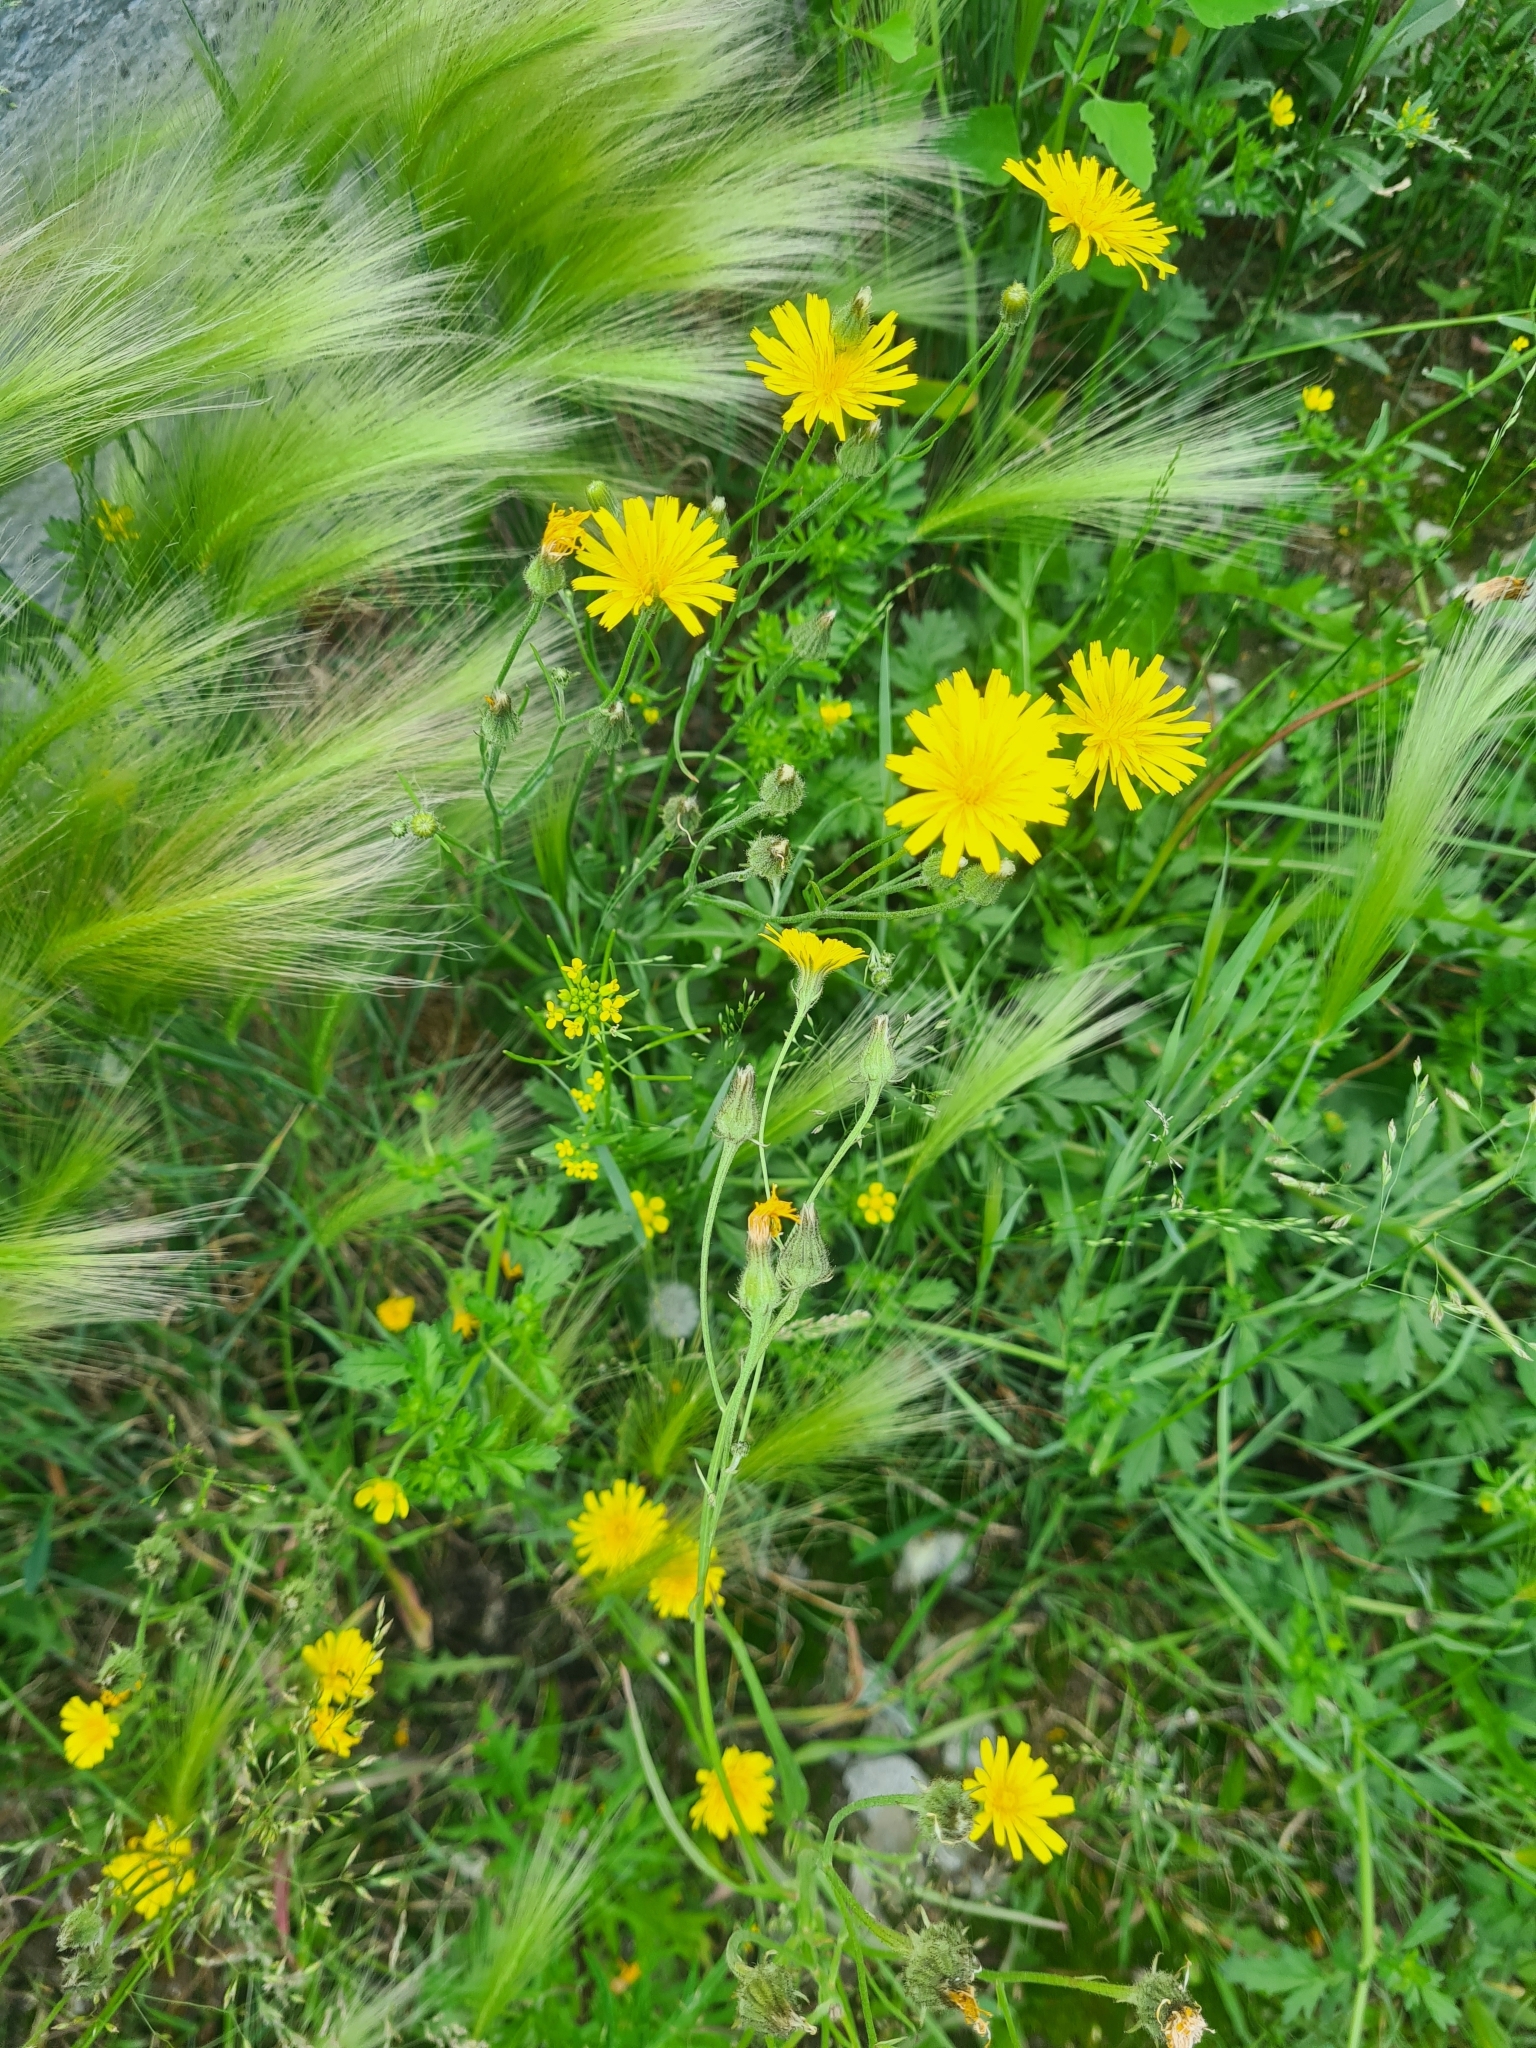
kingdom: Plantae
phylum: Tracheophyta
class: Magnoliopsida
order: Asterales
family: Asteraceae
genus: Crepis
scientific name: Crepis tectorum
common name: Narrow-leaved hawk's-beard
